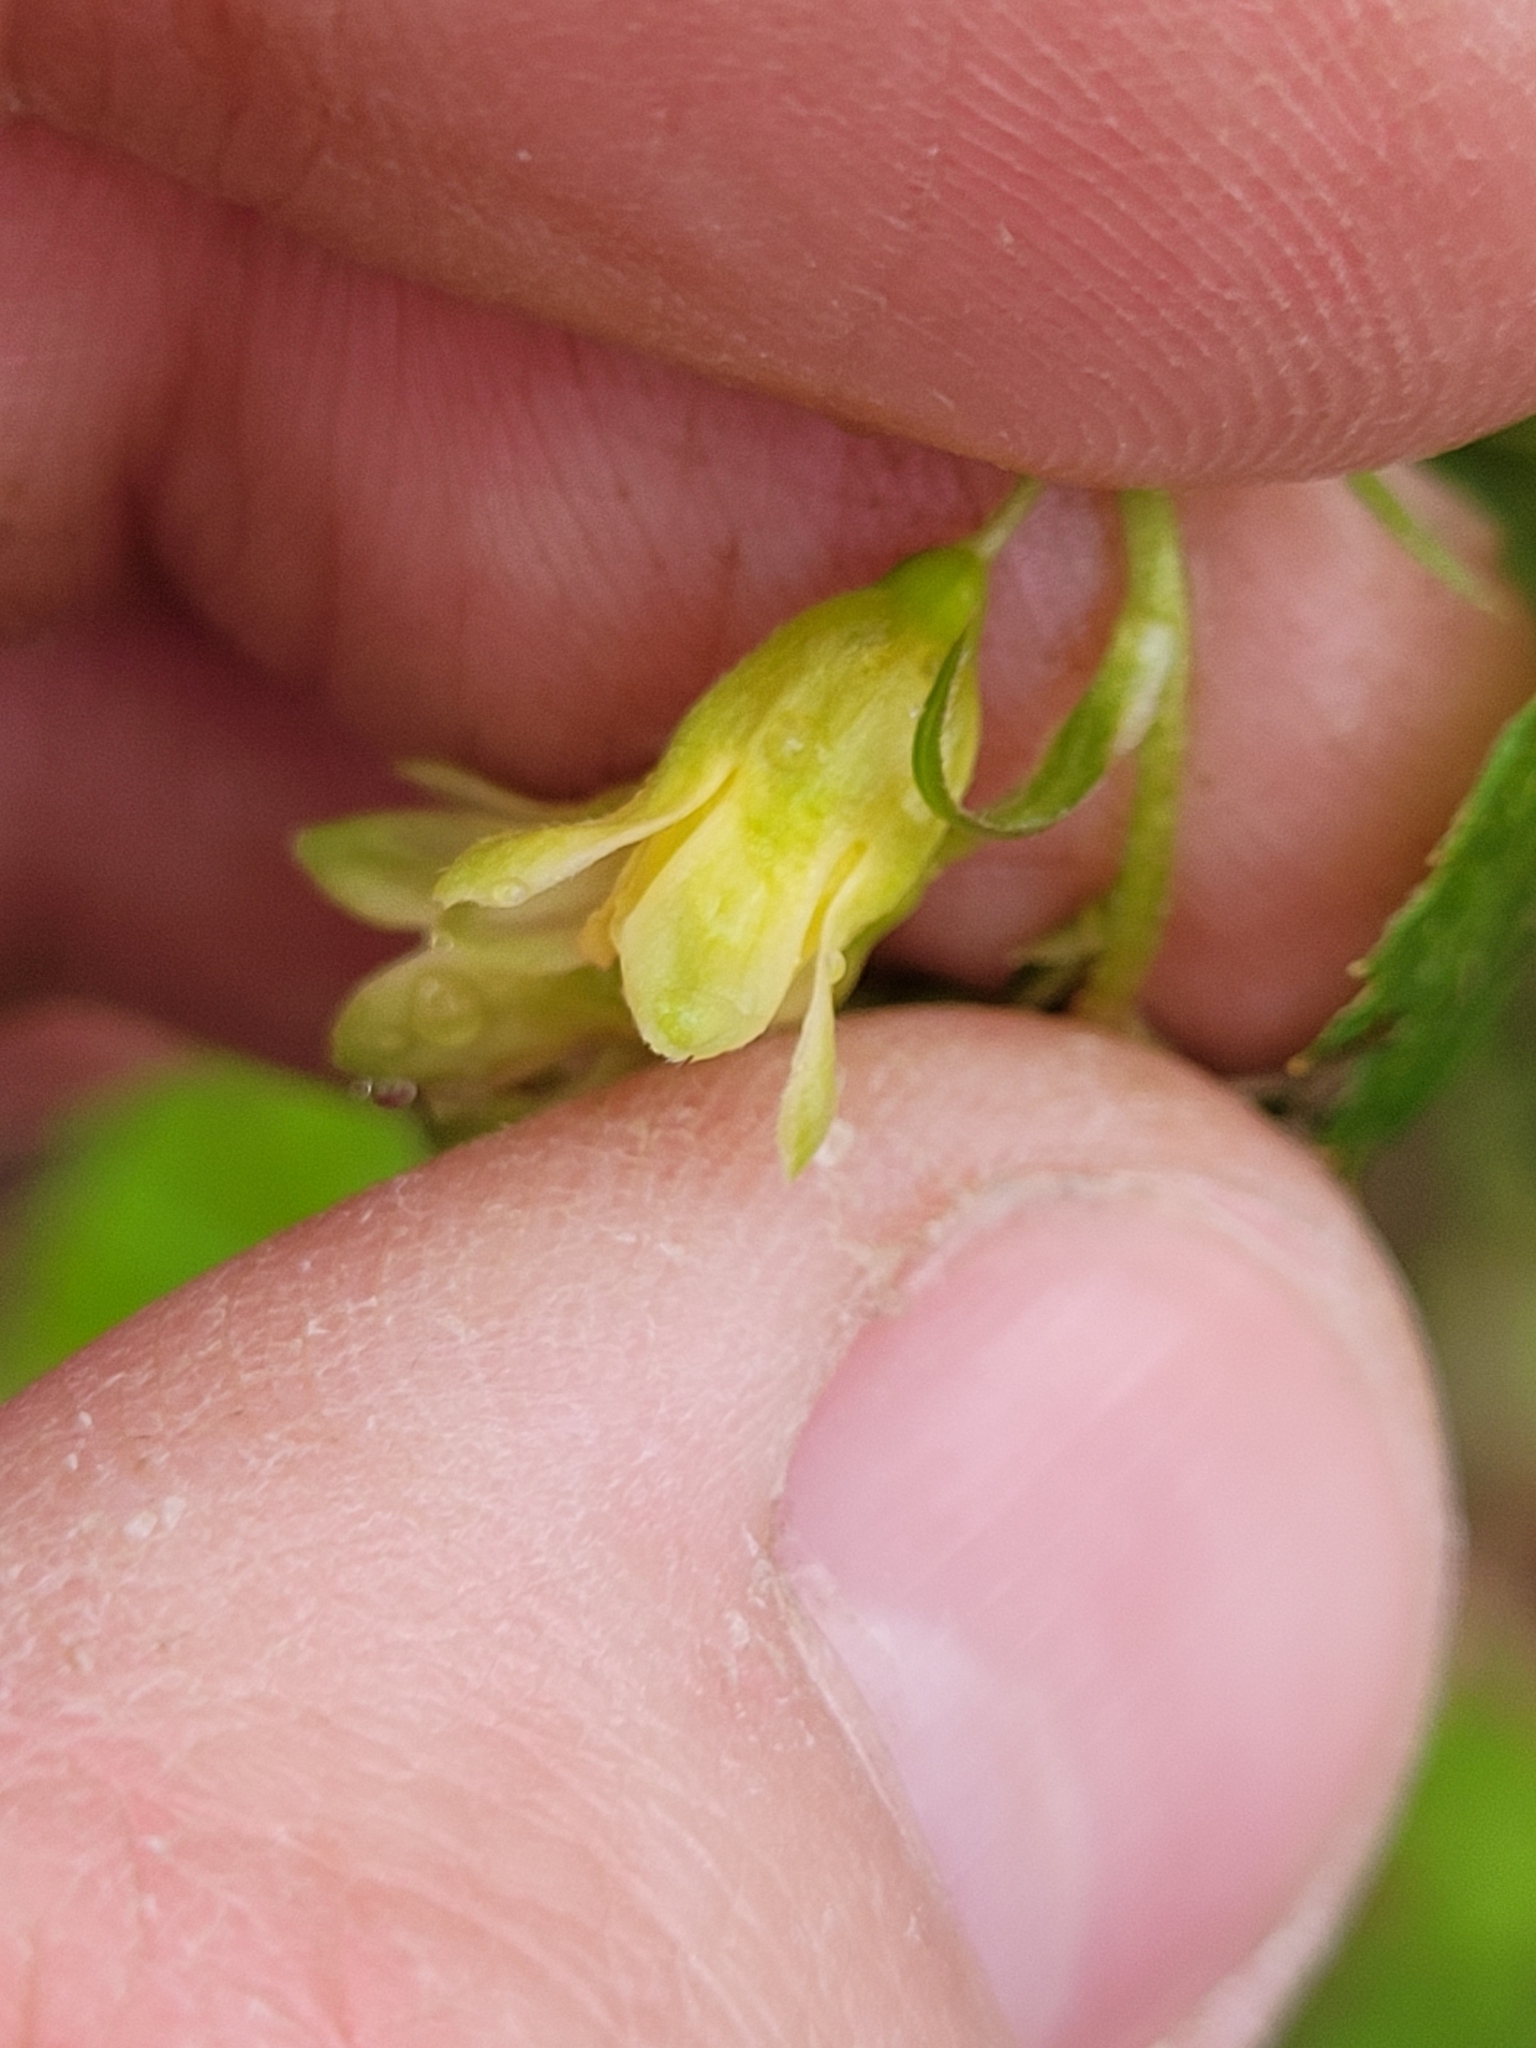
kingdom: Plantae
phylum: Tracheophyta
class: Magnoliopsida
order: Saxifragales
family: Grossulariaceae
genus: Ribes
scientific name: Ribes americanum
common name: American black currant
